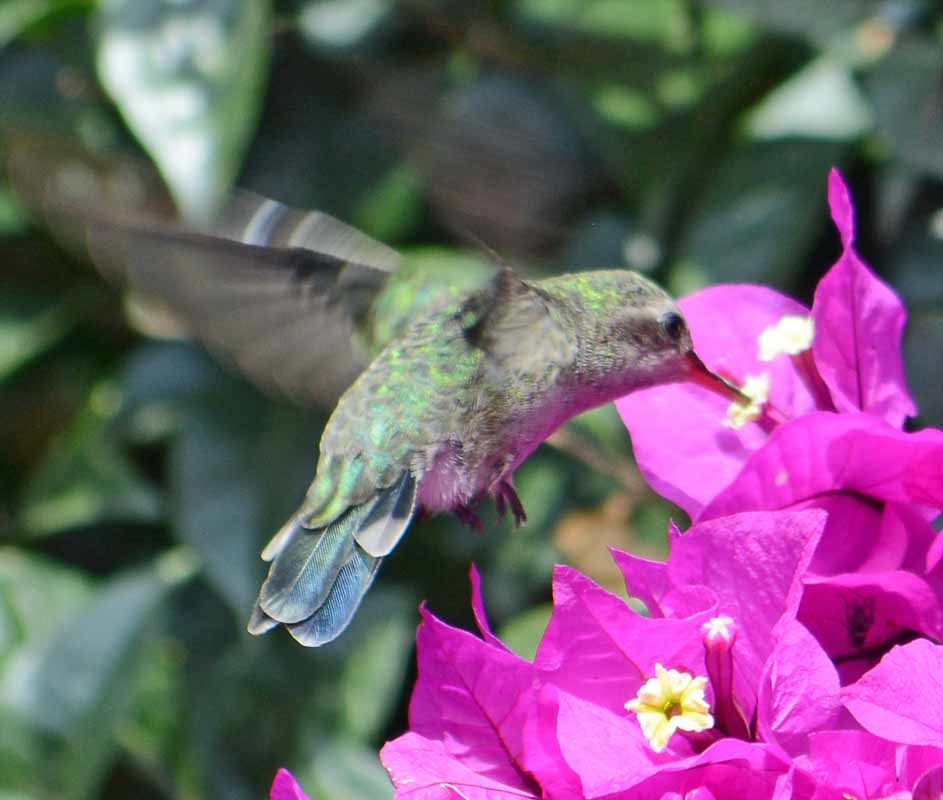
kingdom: Animalia
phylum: Chordata
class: Aves
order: Apodiformes
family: Trochilidae
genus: Cynanthus
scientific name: Cynanthus latirostris
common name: Broad-billed hummingbird
